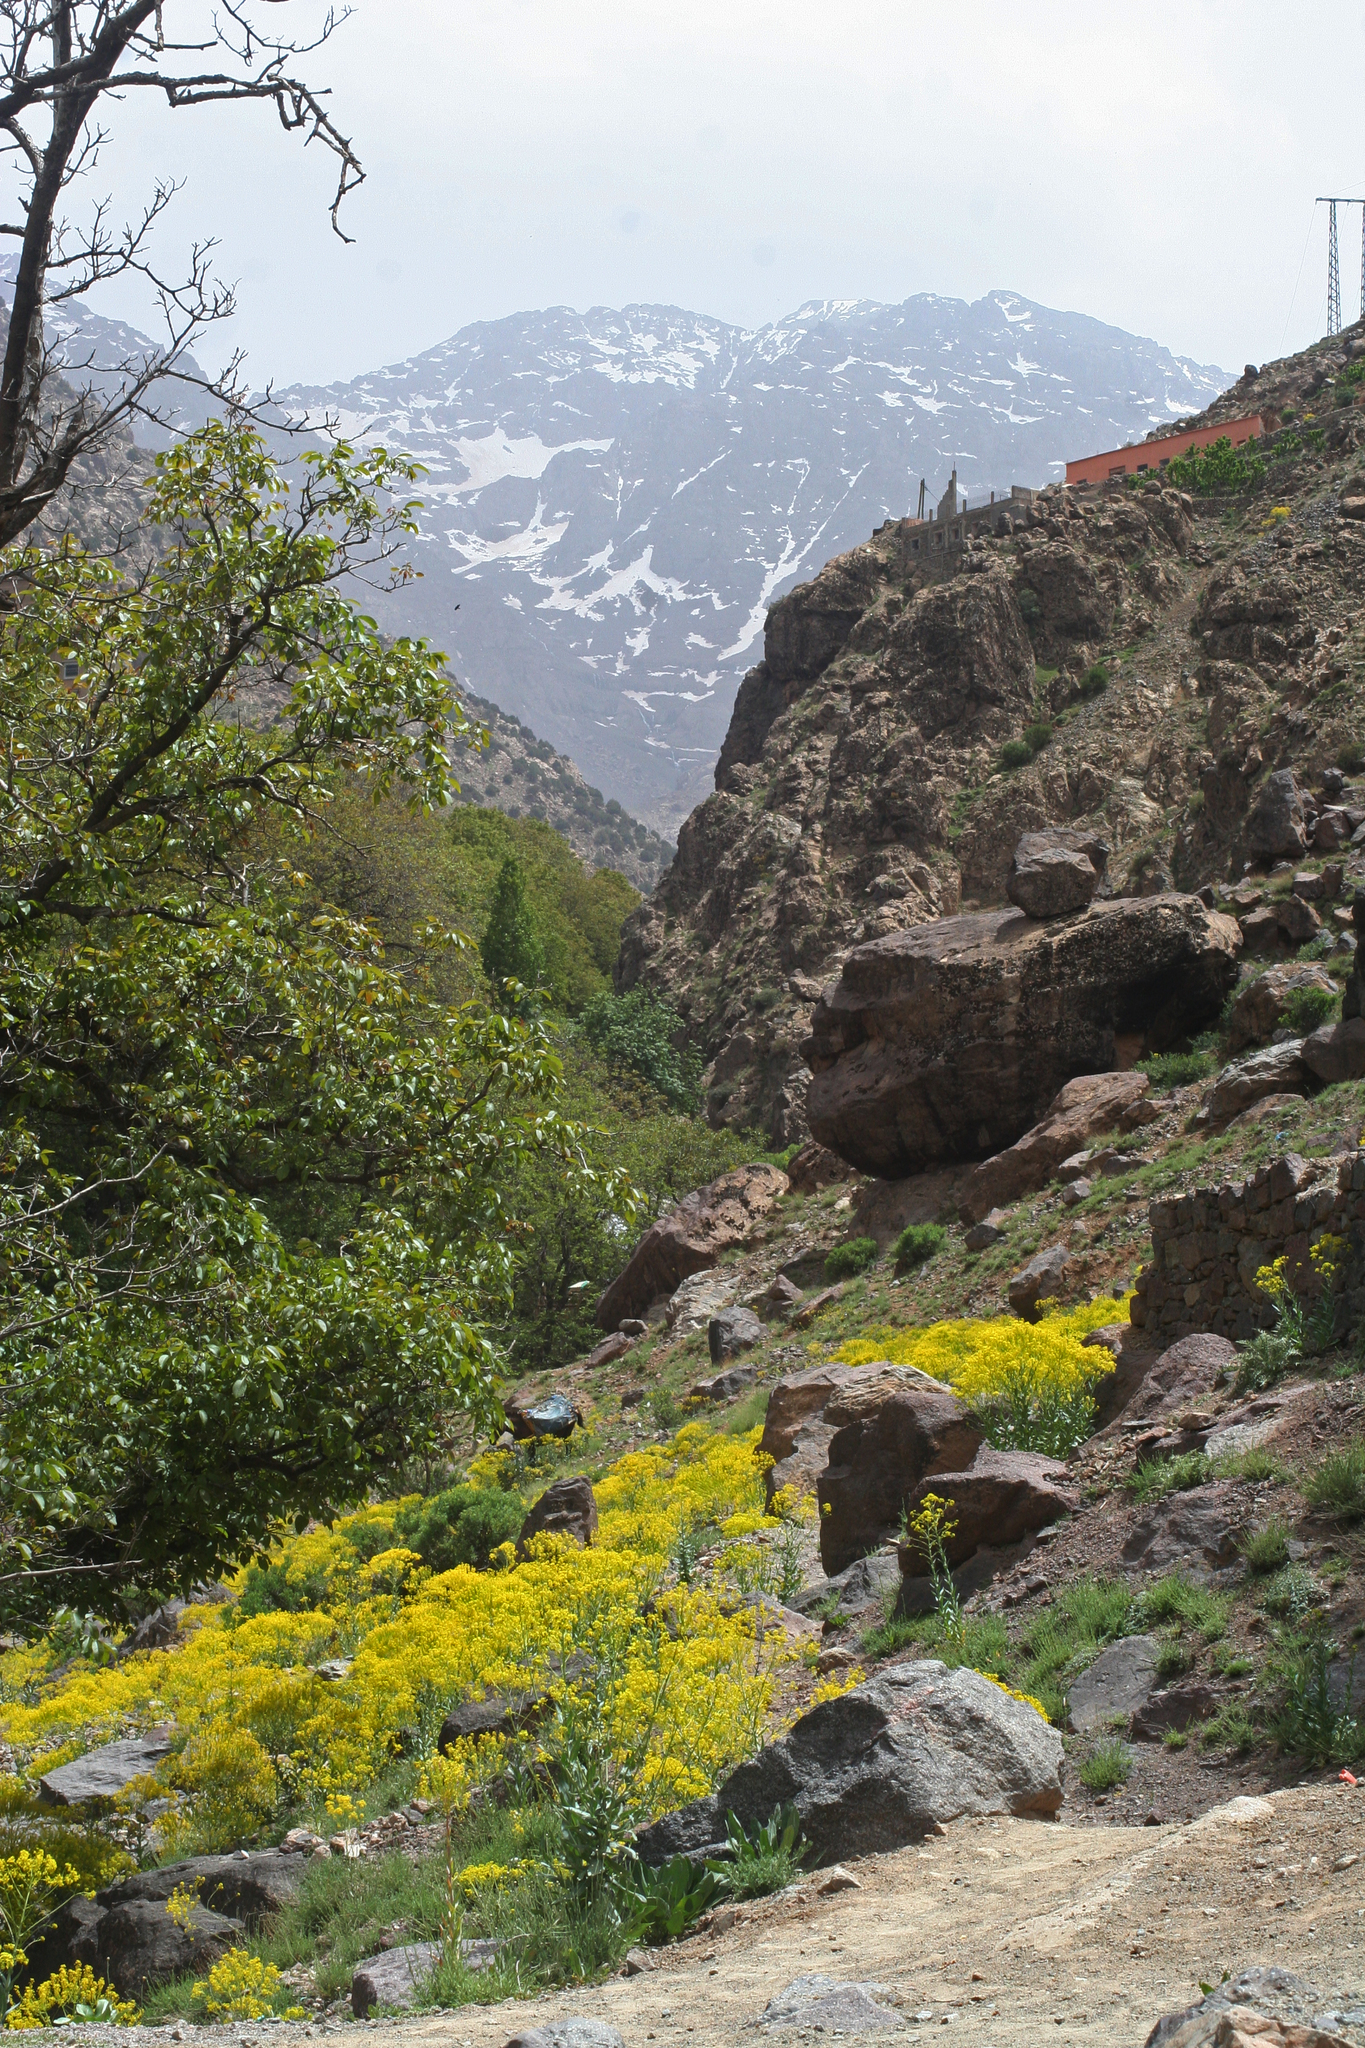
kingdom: Plantae
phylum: Tracheophyta
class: Magnoliopsida
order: Brassicales
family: Brassicaceae
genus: Isatis
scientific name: Isatis tinctoria
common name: Woad
